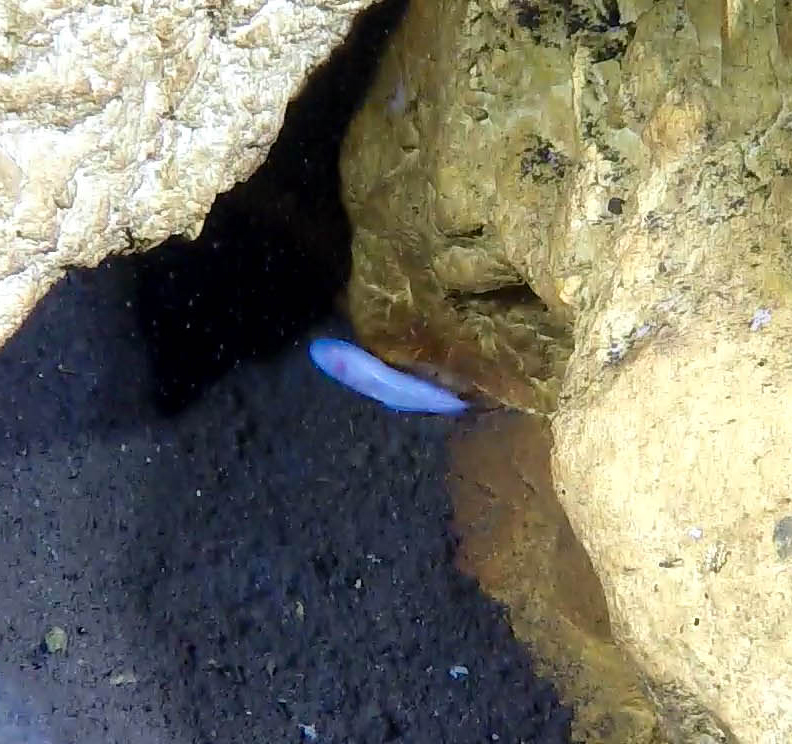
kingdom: Animalia
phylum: Chordata
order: Ophidiiformes
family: Bythitidae
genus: Typhliasina
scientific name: Typhliasina pearsei
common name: Dama ciega blanca
